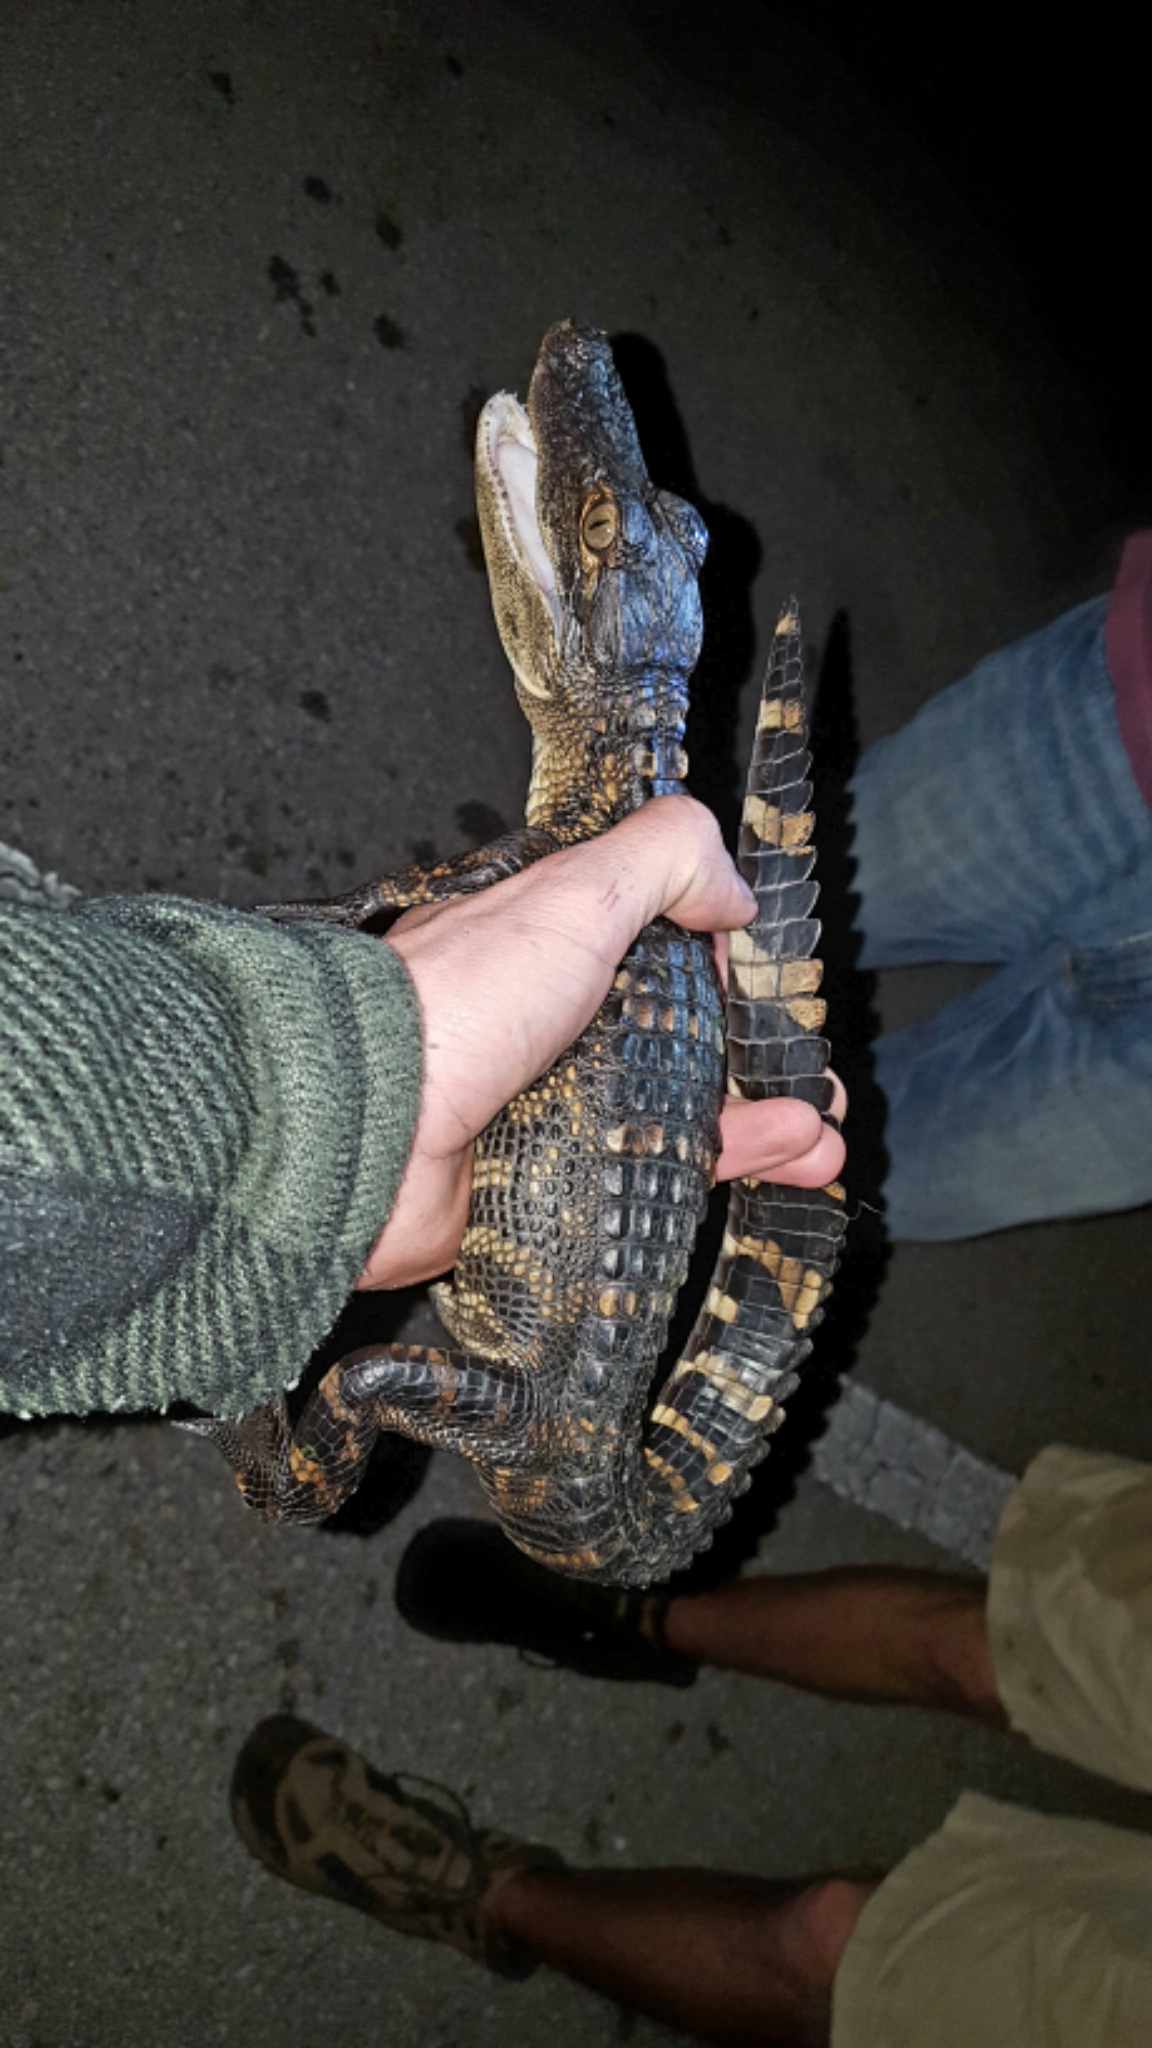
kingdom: Animalia
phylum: Chordata
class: Crocodylia
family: Alligatoridae
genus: Alligator
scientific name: Alligator mississippiensis
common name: American alligator
